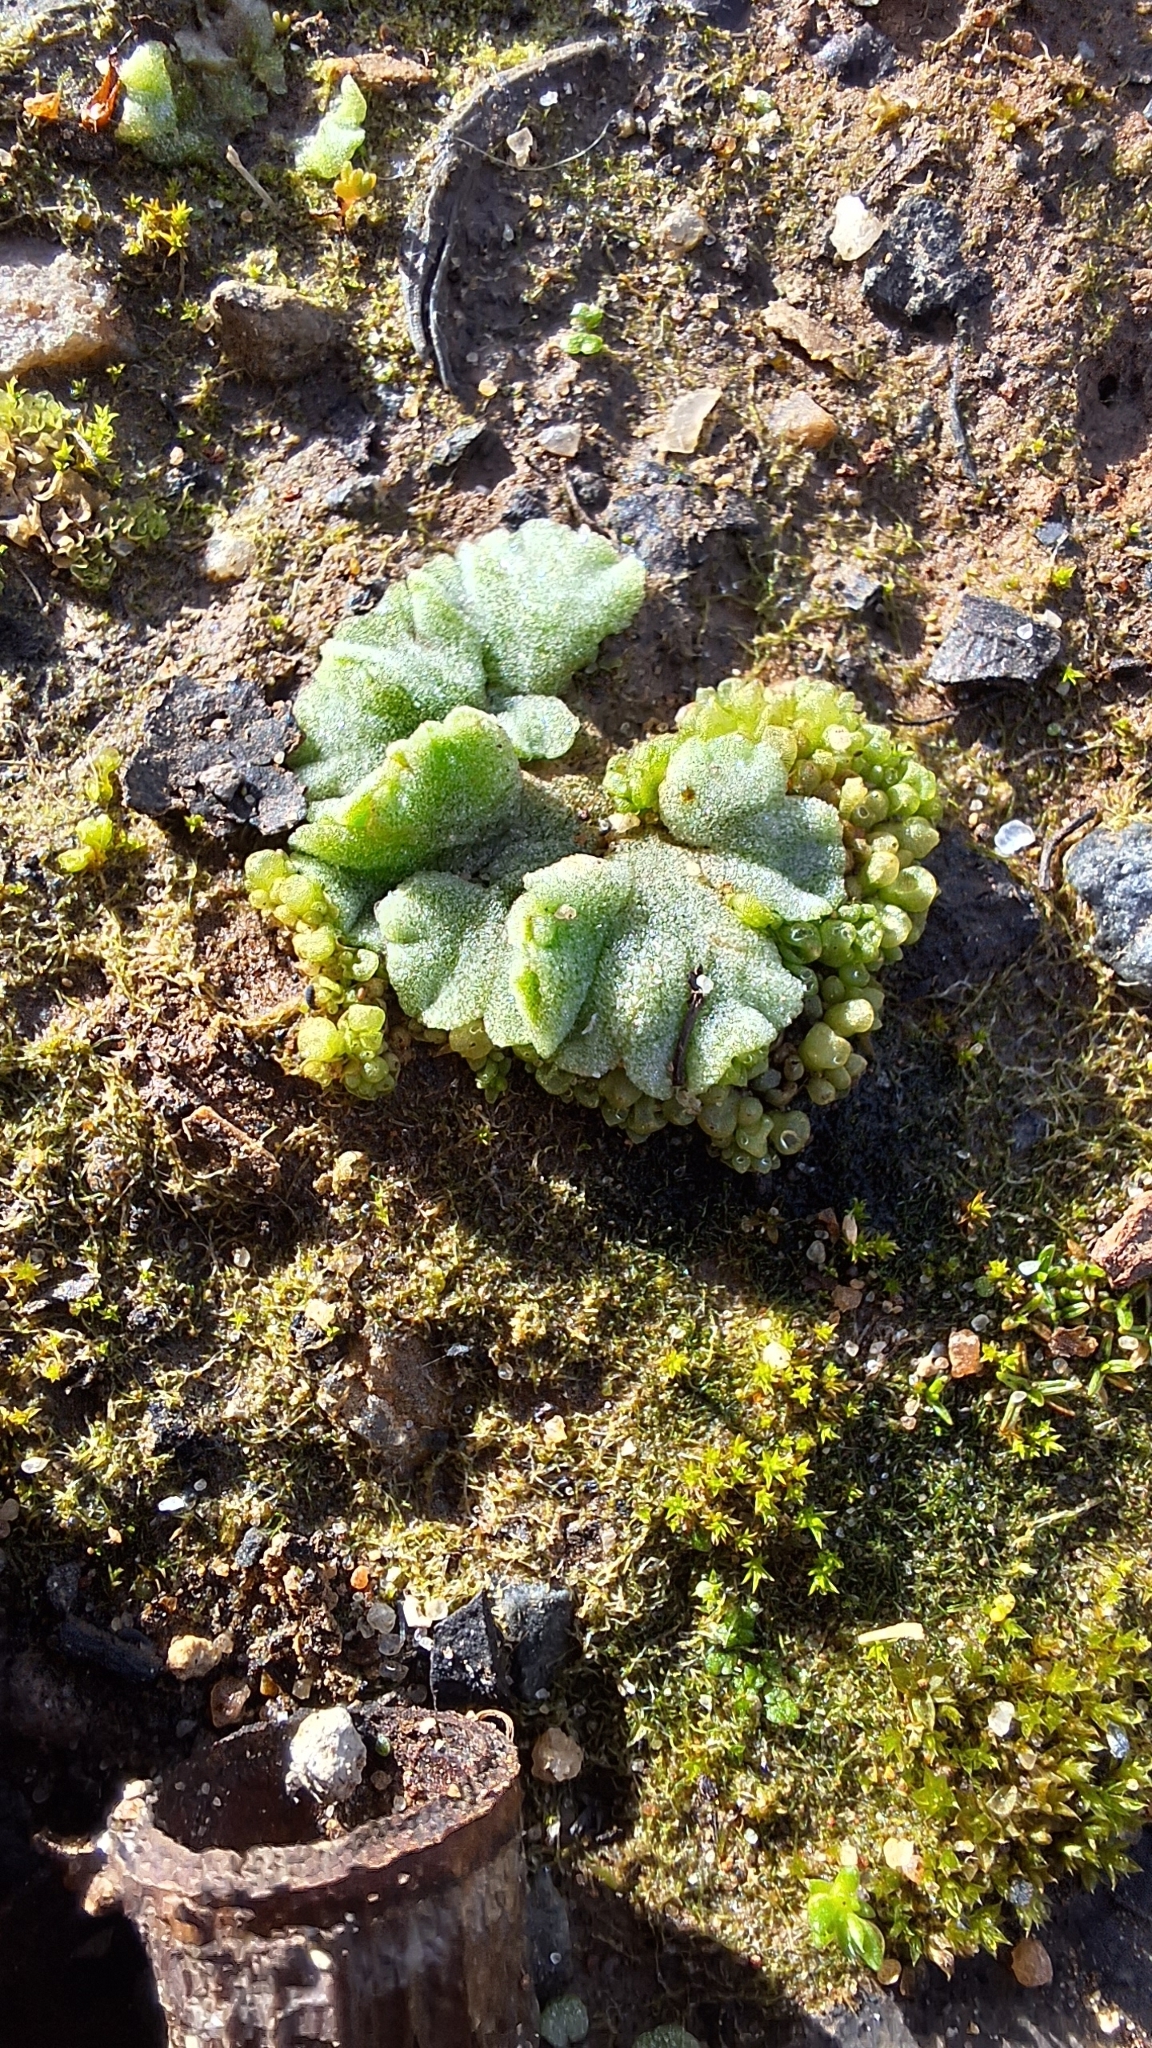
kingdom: Plantae
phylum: Marchantiophyta
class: Marchantiopsida
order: Marchantiales
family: Ricciaceae
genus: Riccia
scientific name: Riccia crystallina
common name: Blue crystalwort
